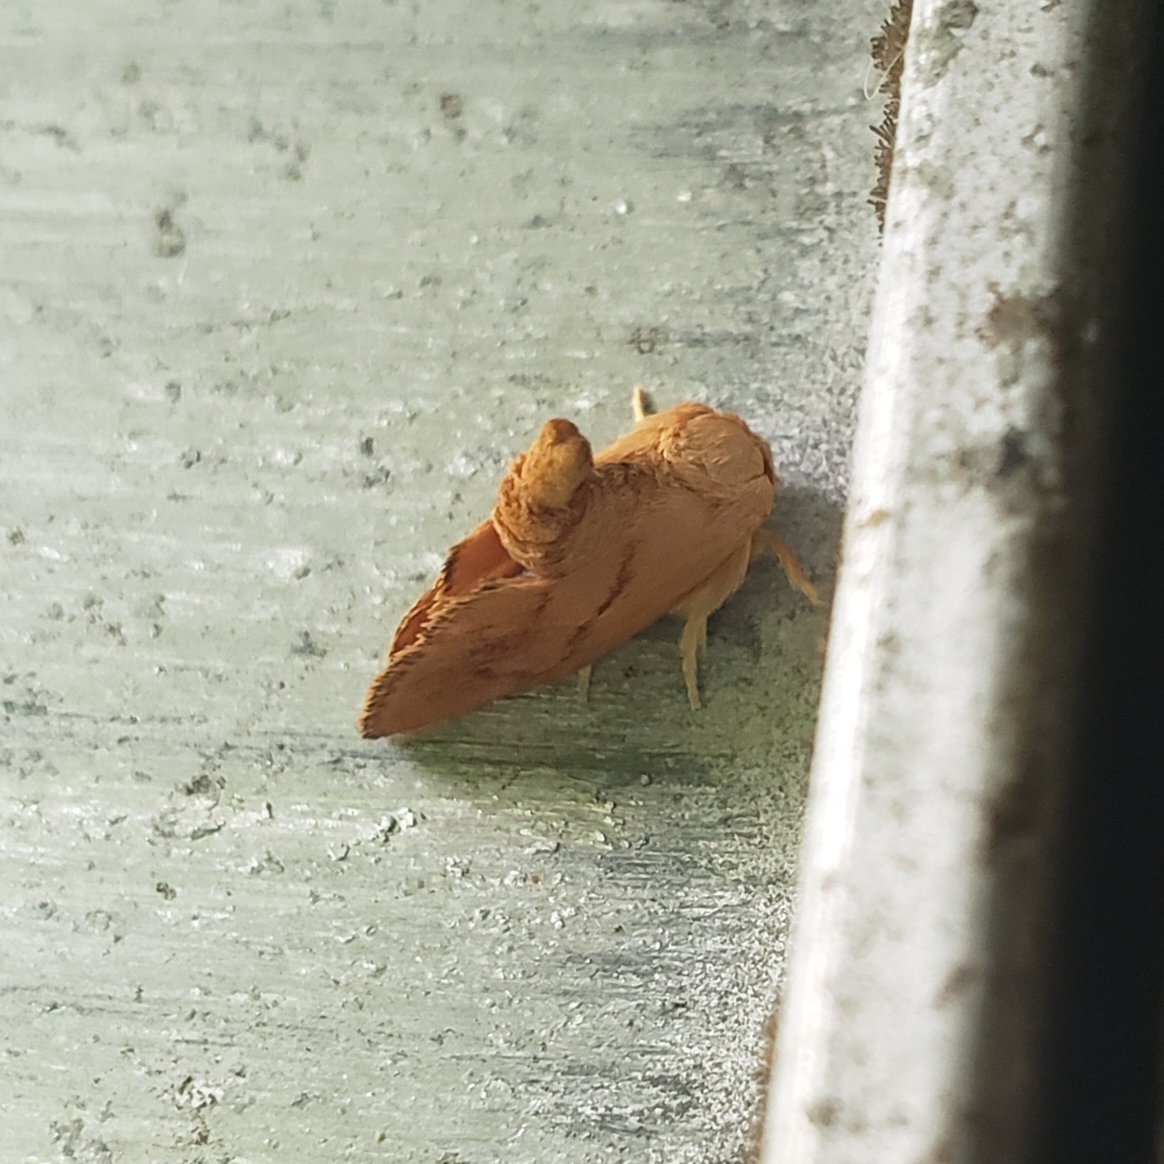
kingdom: Animalia
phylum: Arthropoda
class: Insecta
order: Lepidoptera
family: Limacodidae
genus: Apoda
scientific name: Apoda y-inversa
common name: Yellow-collared slug moth
